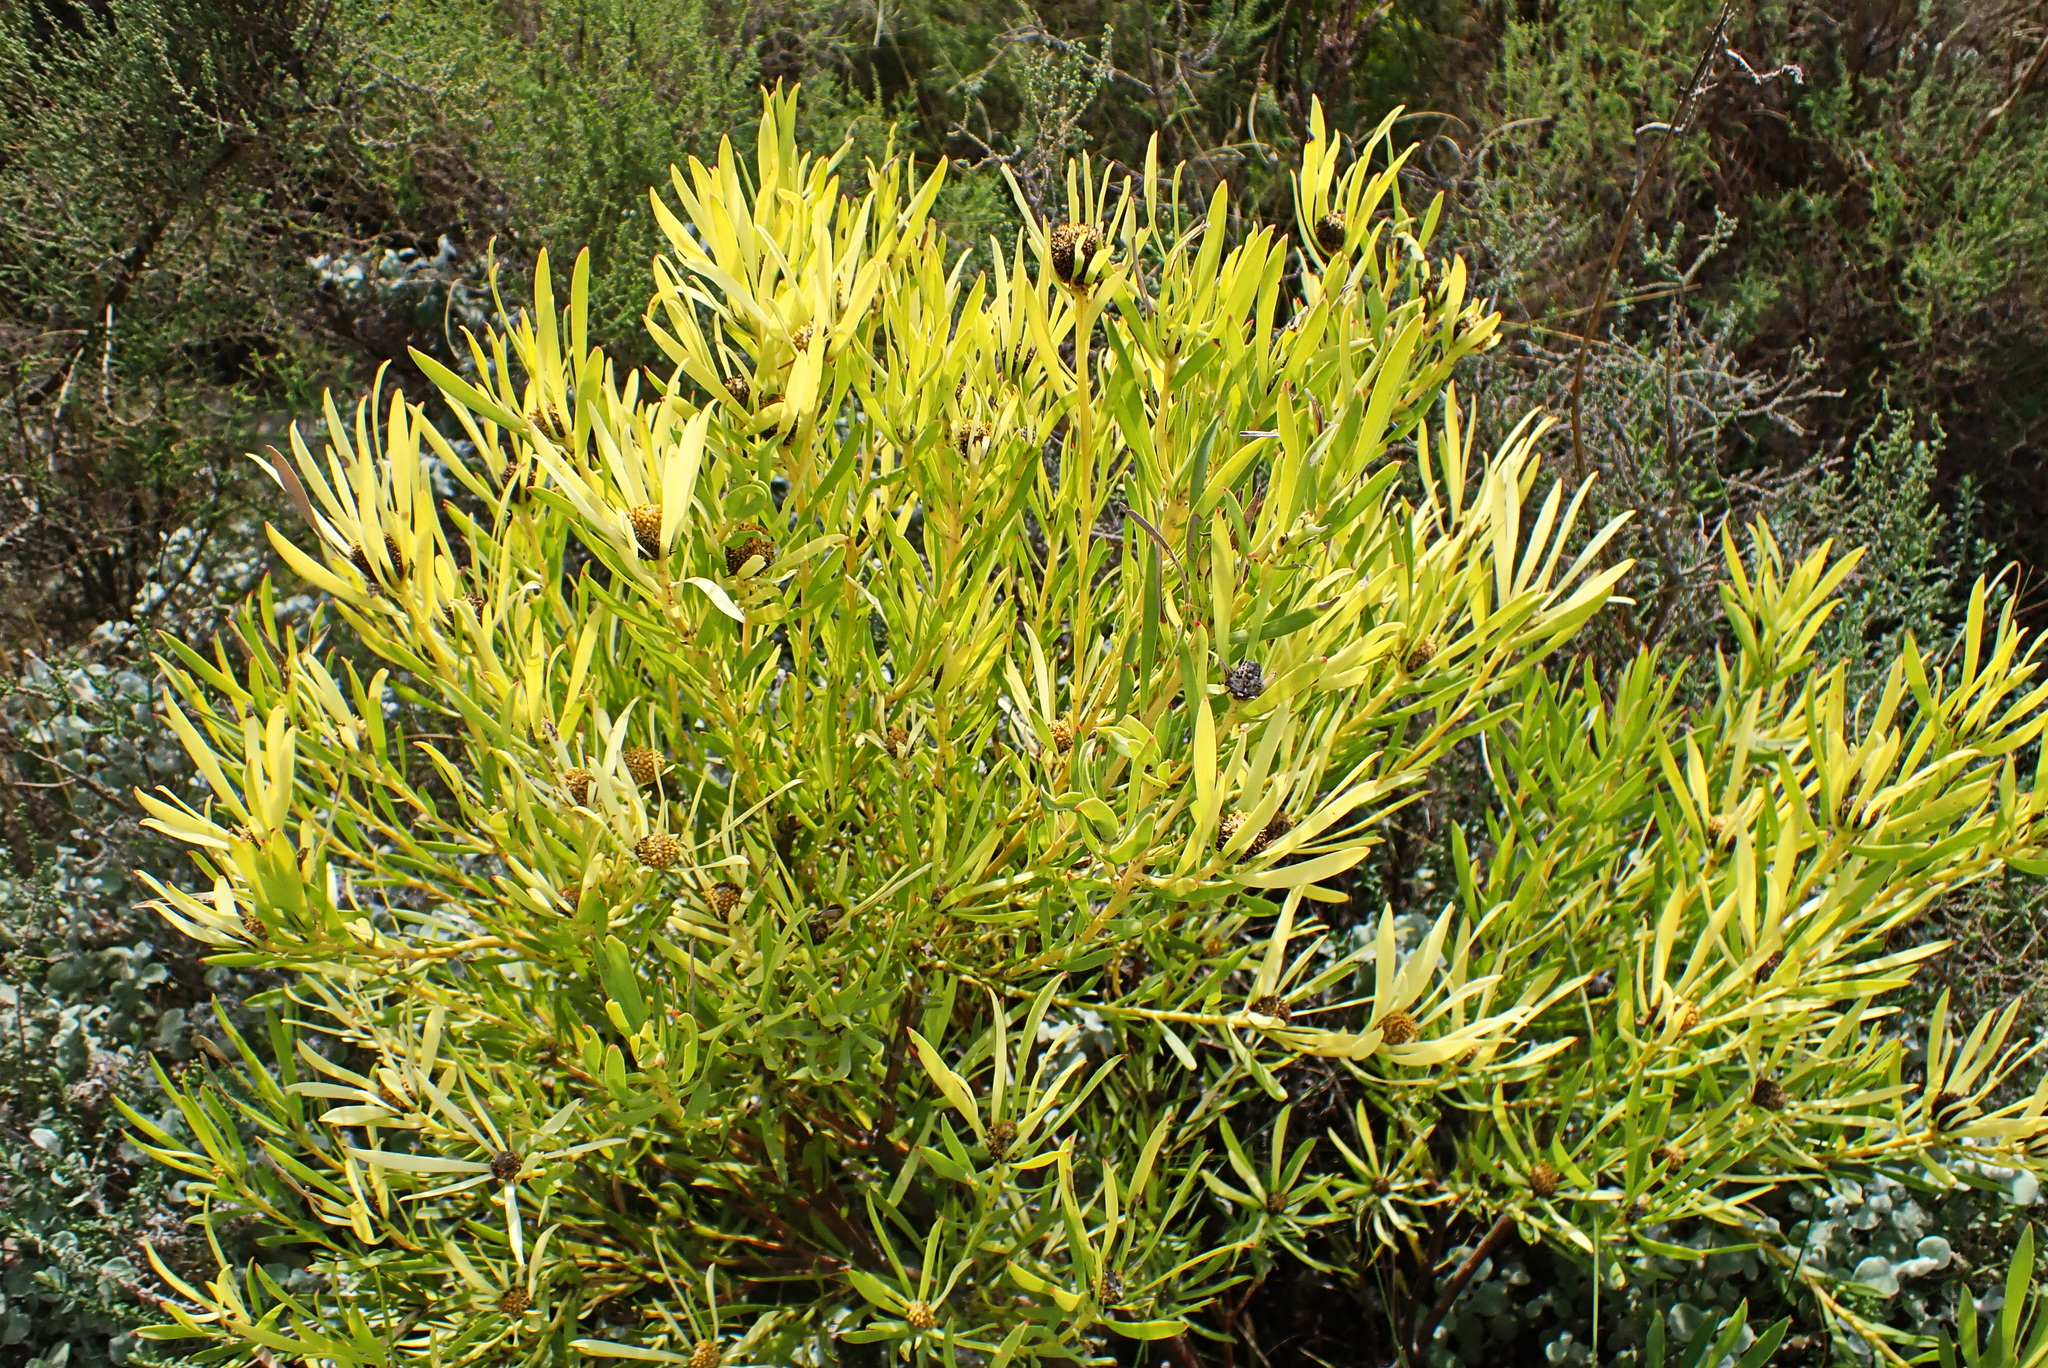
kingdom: Plantae
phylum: Tracheophyta
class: Magnoliopsida
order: Proteales
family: Proteaceae
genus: Leucadendron
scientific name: Leucadendron salignum
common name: Common sunshine conebush
